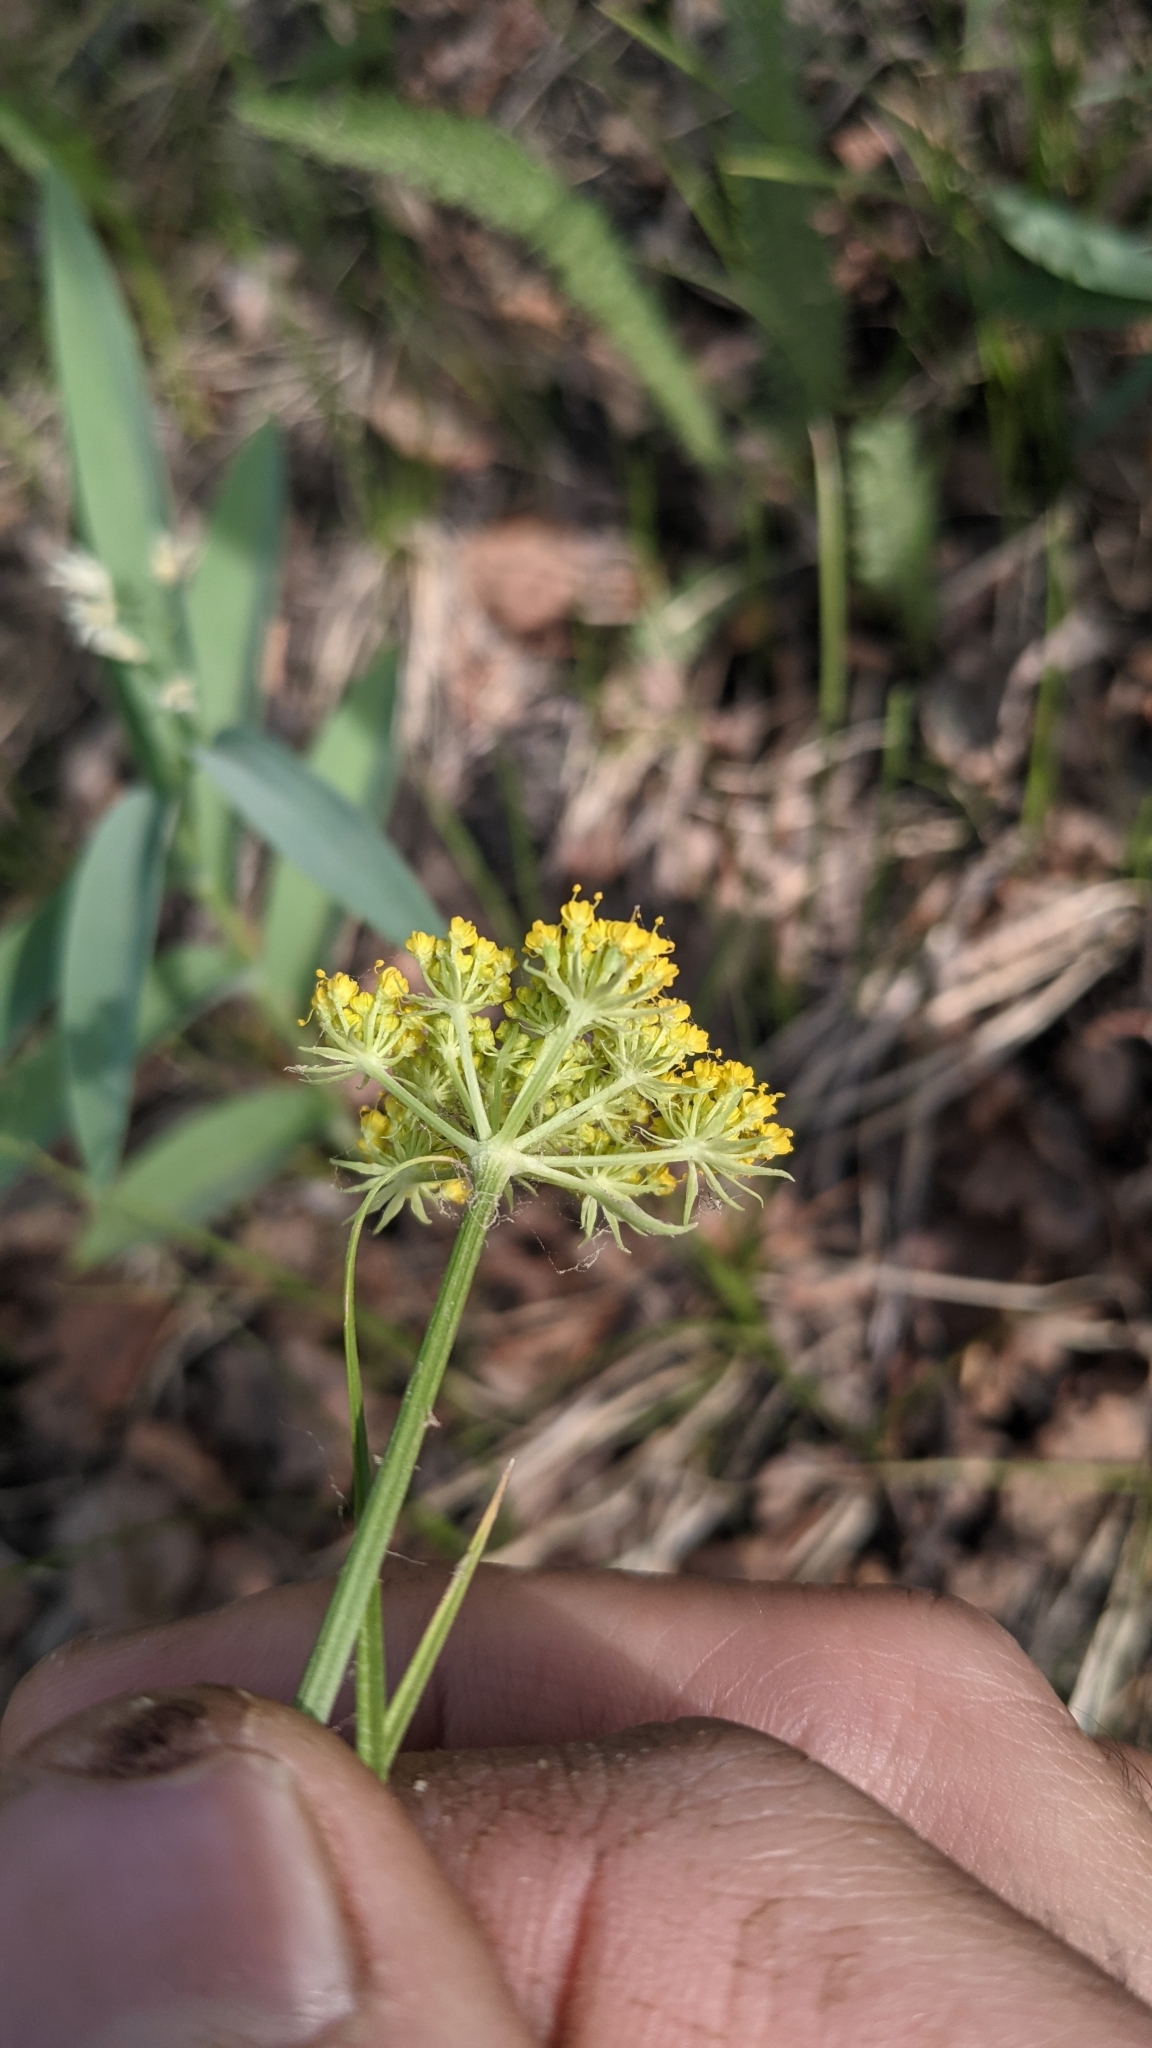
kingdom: Plantae
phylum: Tracheophyta
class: Magnoliopsida
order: Apiales
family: Apiaceae
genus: Cymopterus
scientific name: Cymopterus lemmonii
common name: Lemmon's spring-parsley
